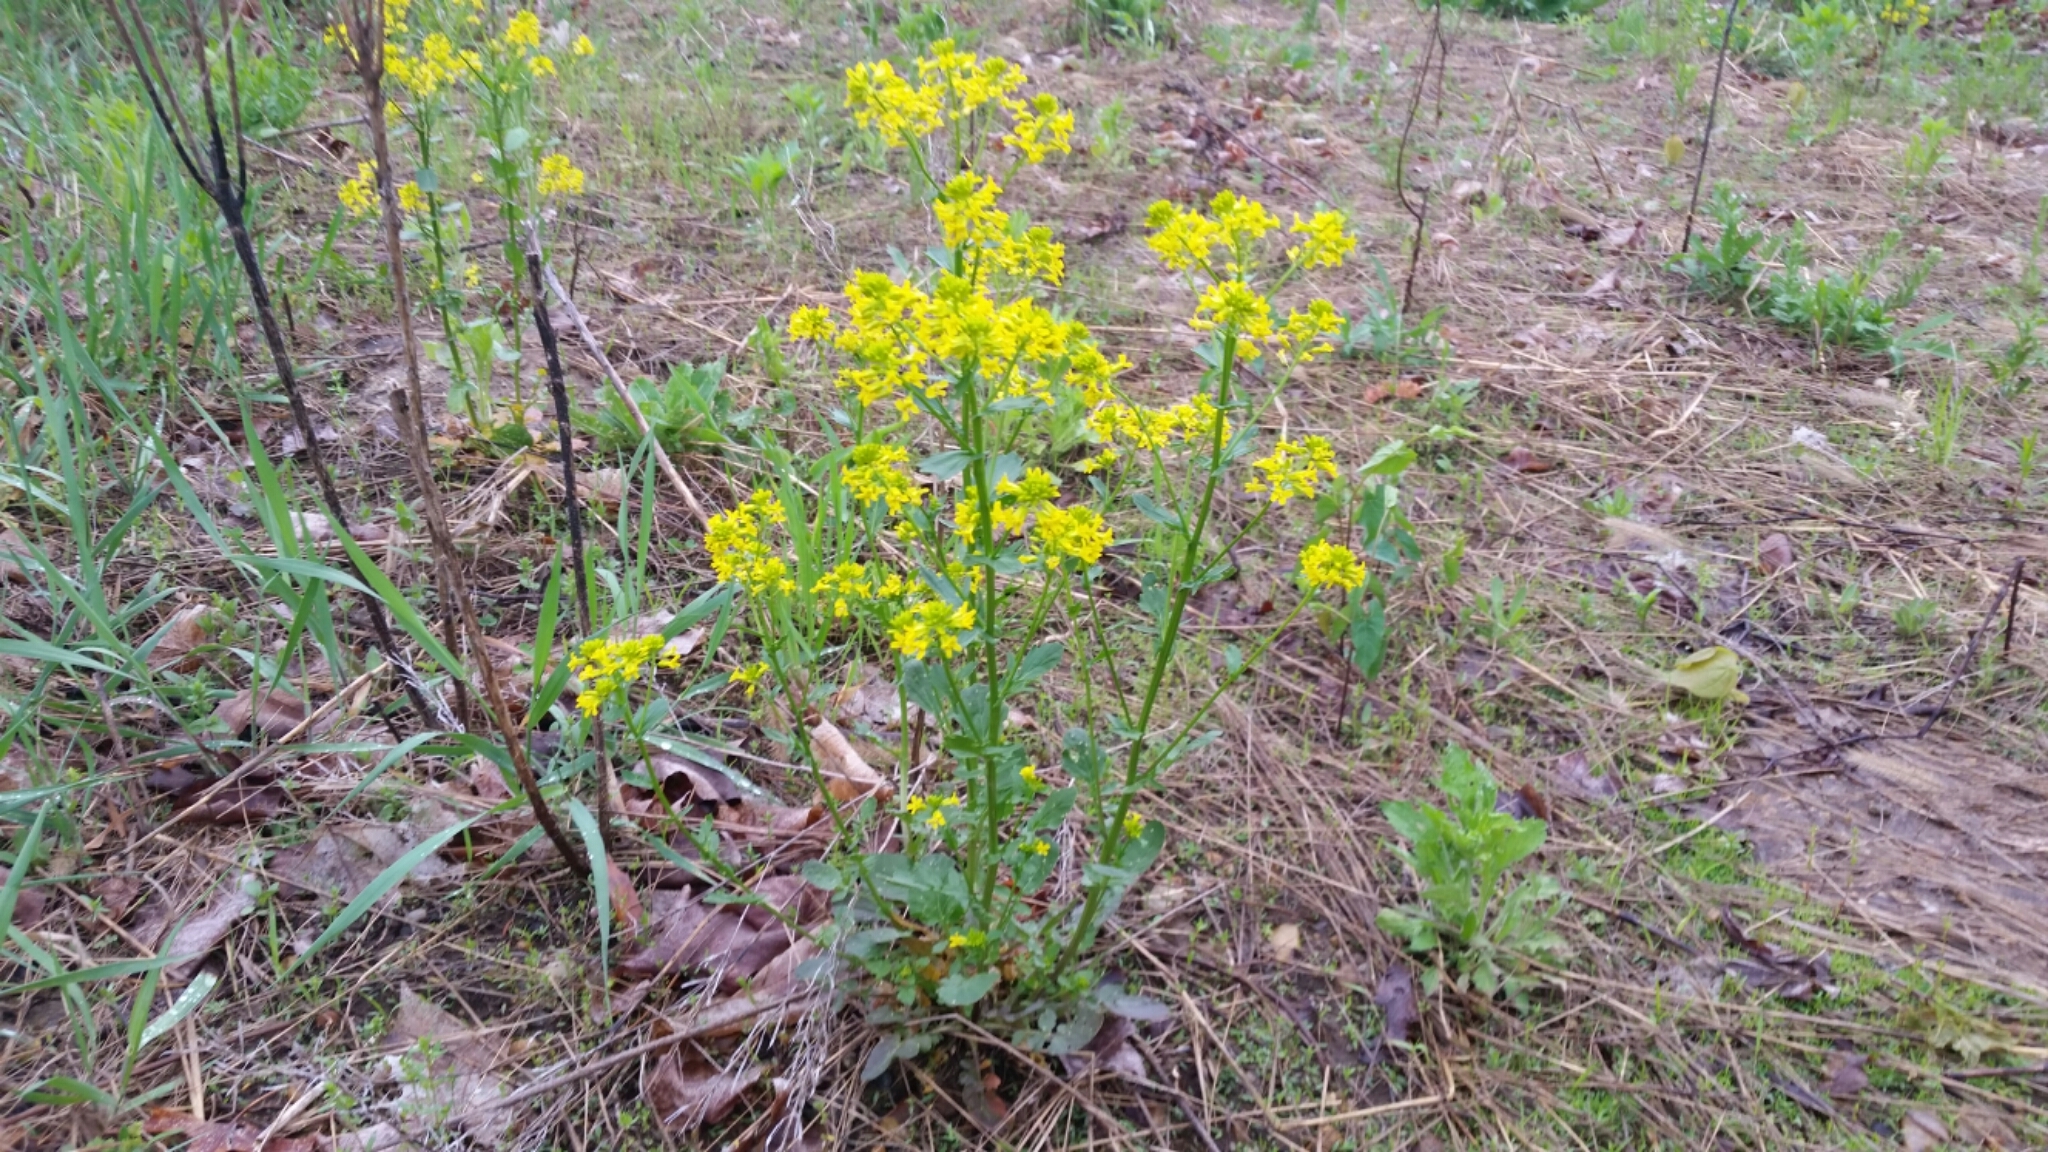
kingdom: Plantae
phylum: Tracheophyta
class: Magnoliopsida
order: Brassicales
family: Brassicaceae
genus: Barbarea
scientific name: Barbarea vulgaris
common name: Cressy-greens
